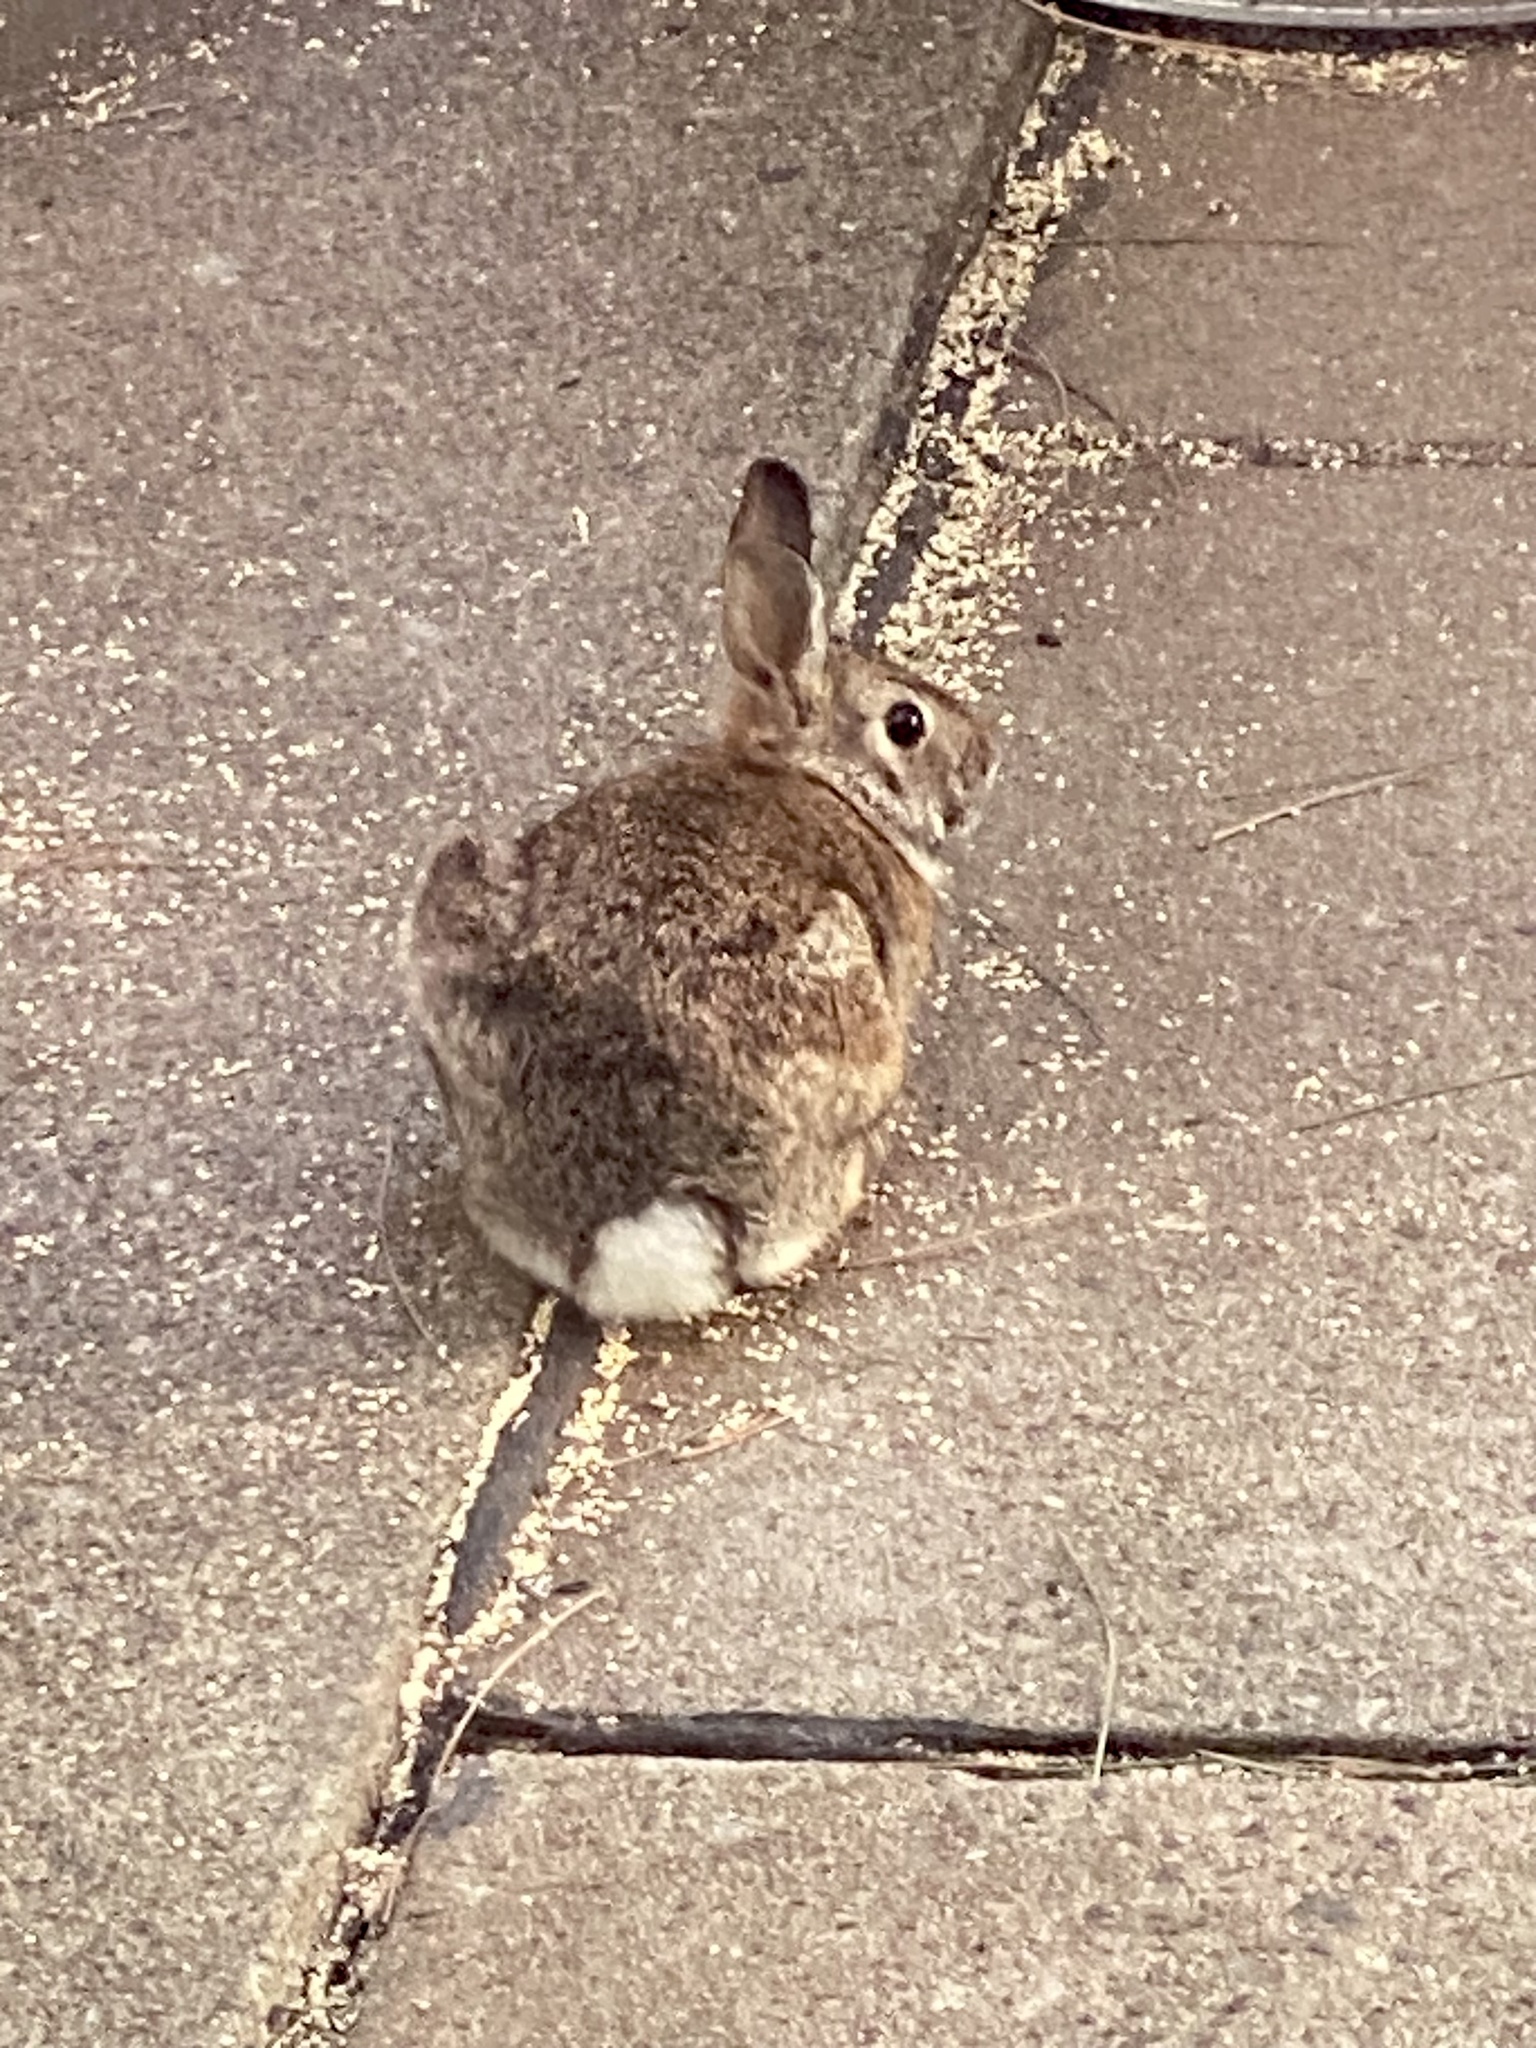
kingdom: Animalia
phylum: Chordata
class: Mammalia
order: Lagomorpha
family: Leporidae
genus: Sylvilagus
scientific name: Sylvilagus floridanus
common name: Eastern cottontail
